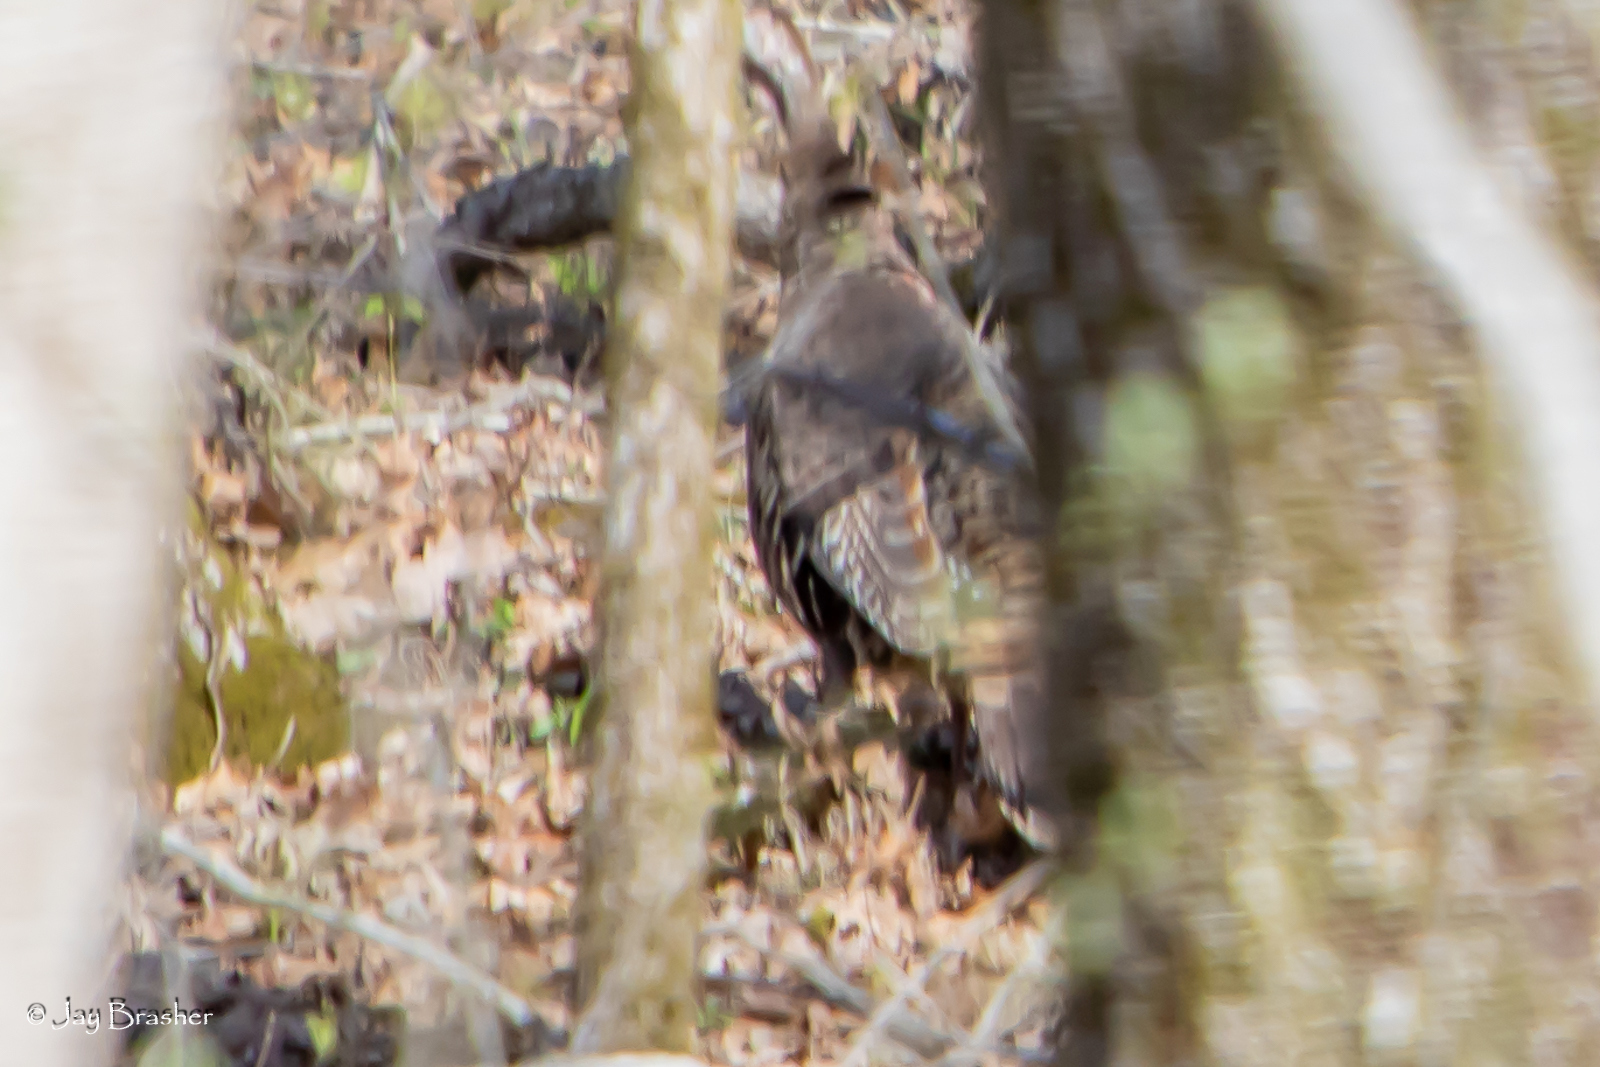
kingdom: Animalia
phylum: Chordata
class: Aves
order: Galliformes
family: Phasianidae
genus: Meleagris
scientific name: Meleagris gallopavo
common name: Wild turkey
